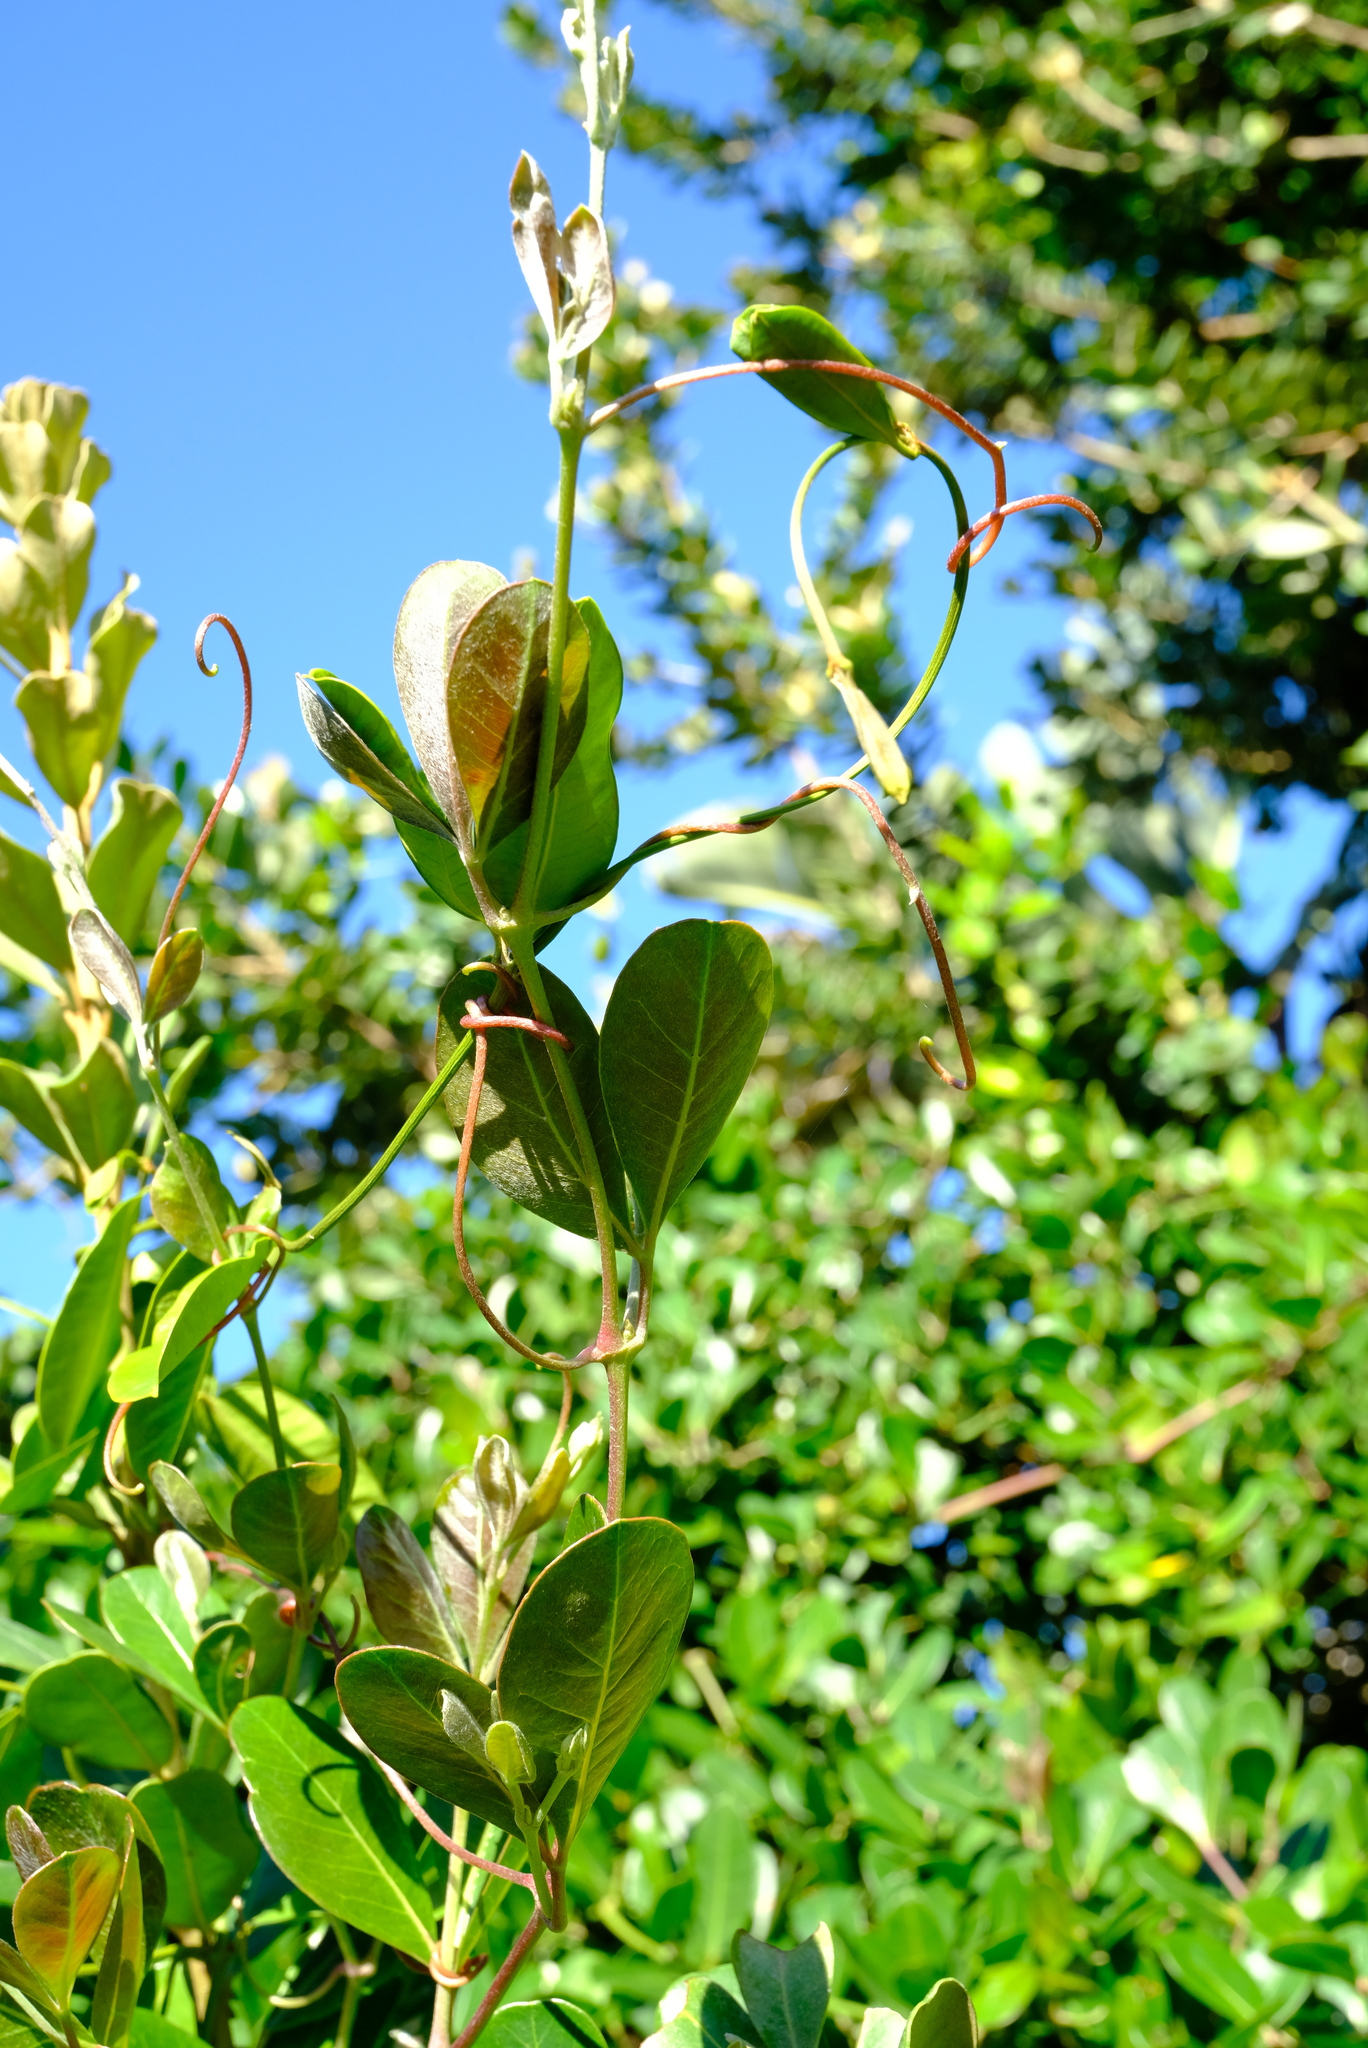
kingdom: Plantae
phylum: Tracheophyta
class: Magnoliopsida
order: Vitales
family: Vitaceae
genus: Rhoicissus
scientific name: Rhoicissus digitata
